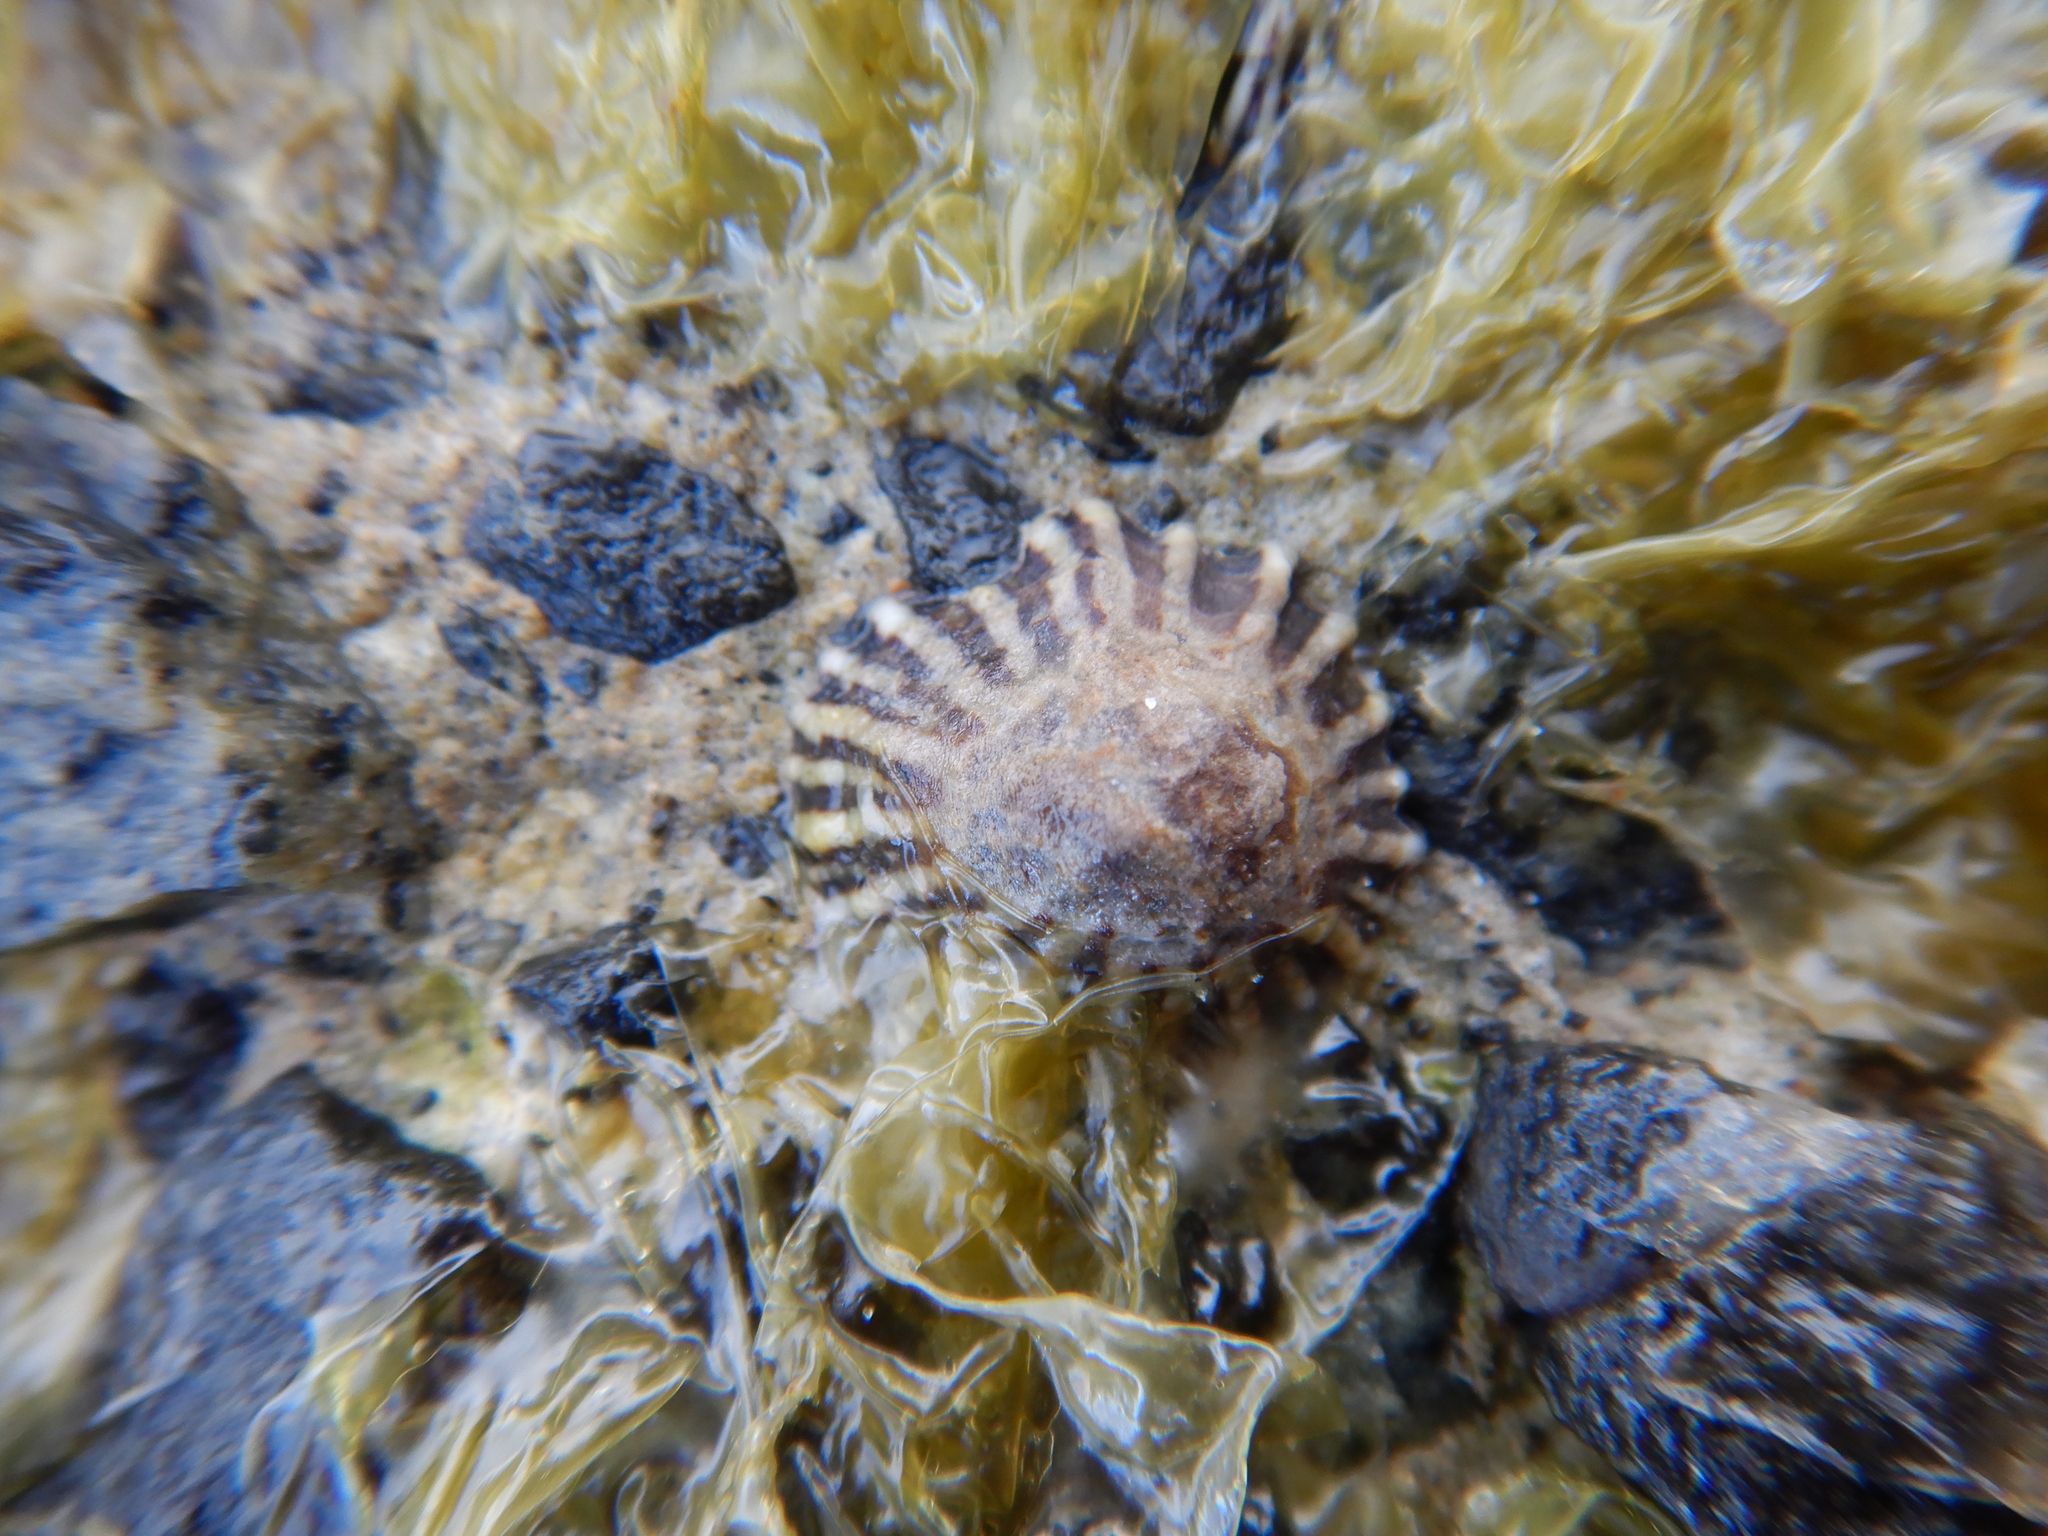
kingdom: Animalia
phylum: Mollusca
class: Gastropoda
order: Siphonariida
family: Siphonariidae
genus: Siphonaria
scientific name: Siphonaria diemenensis
